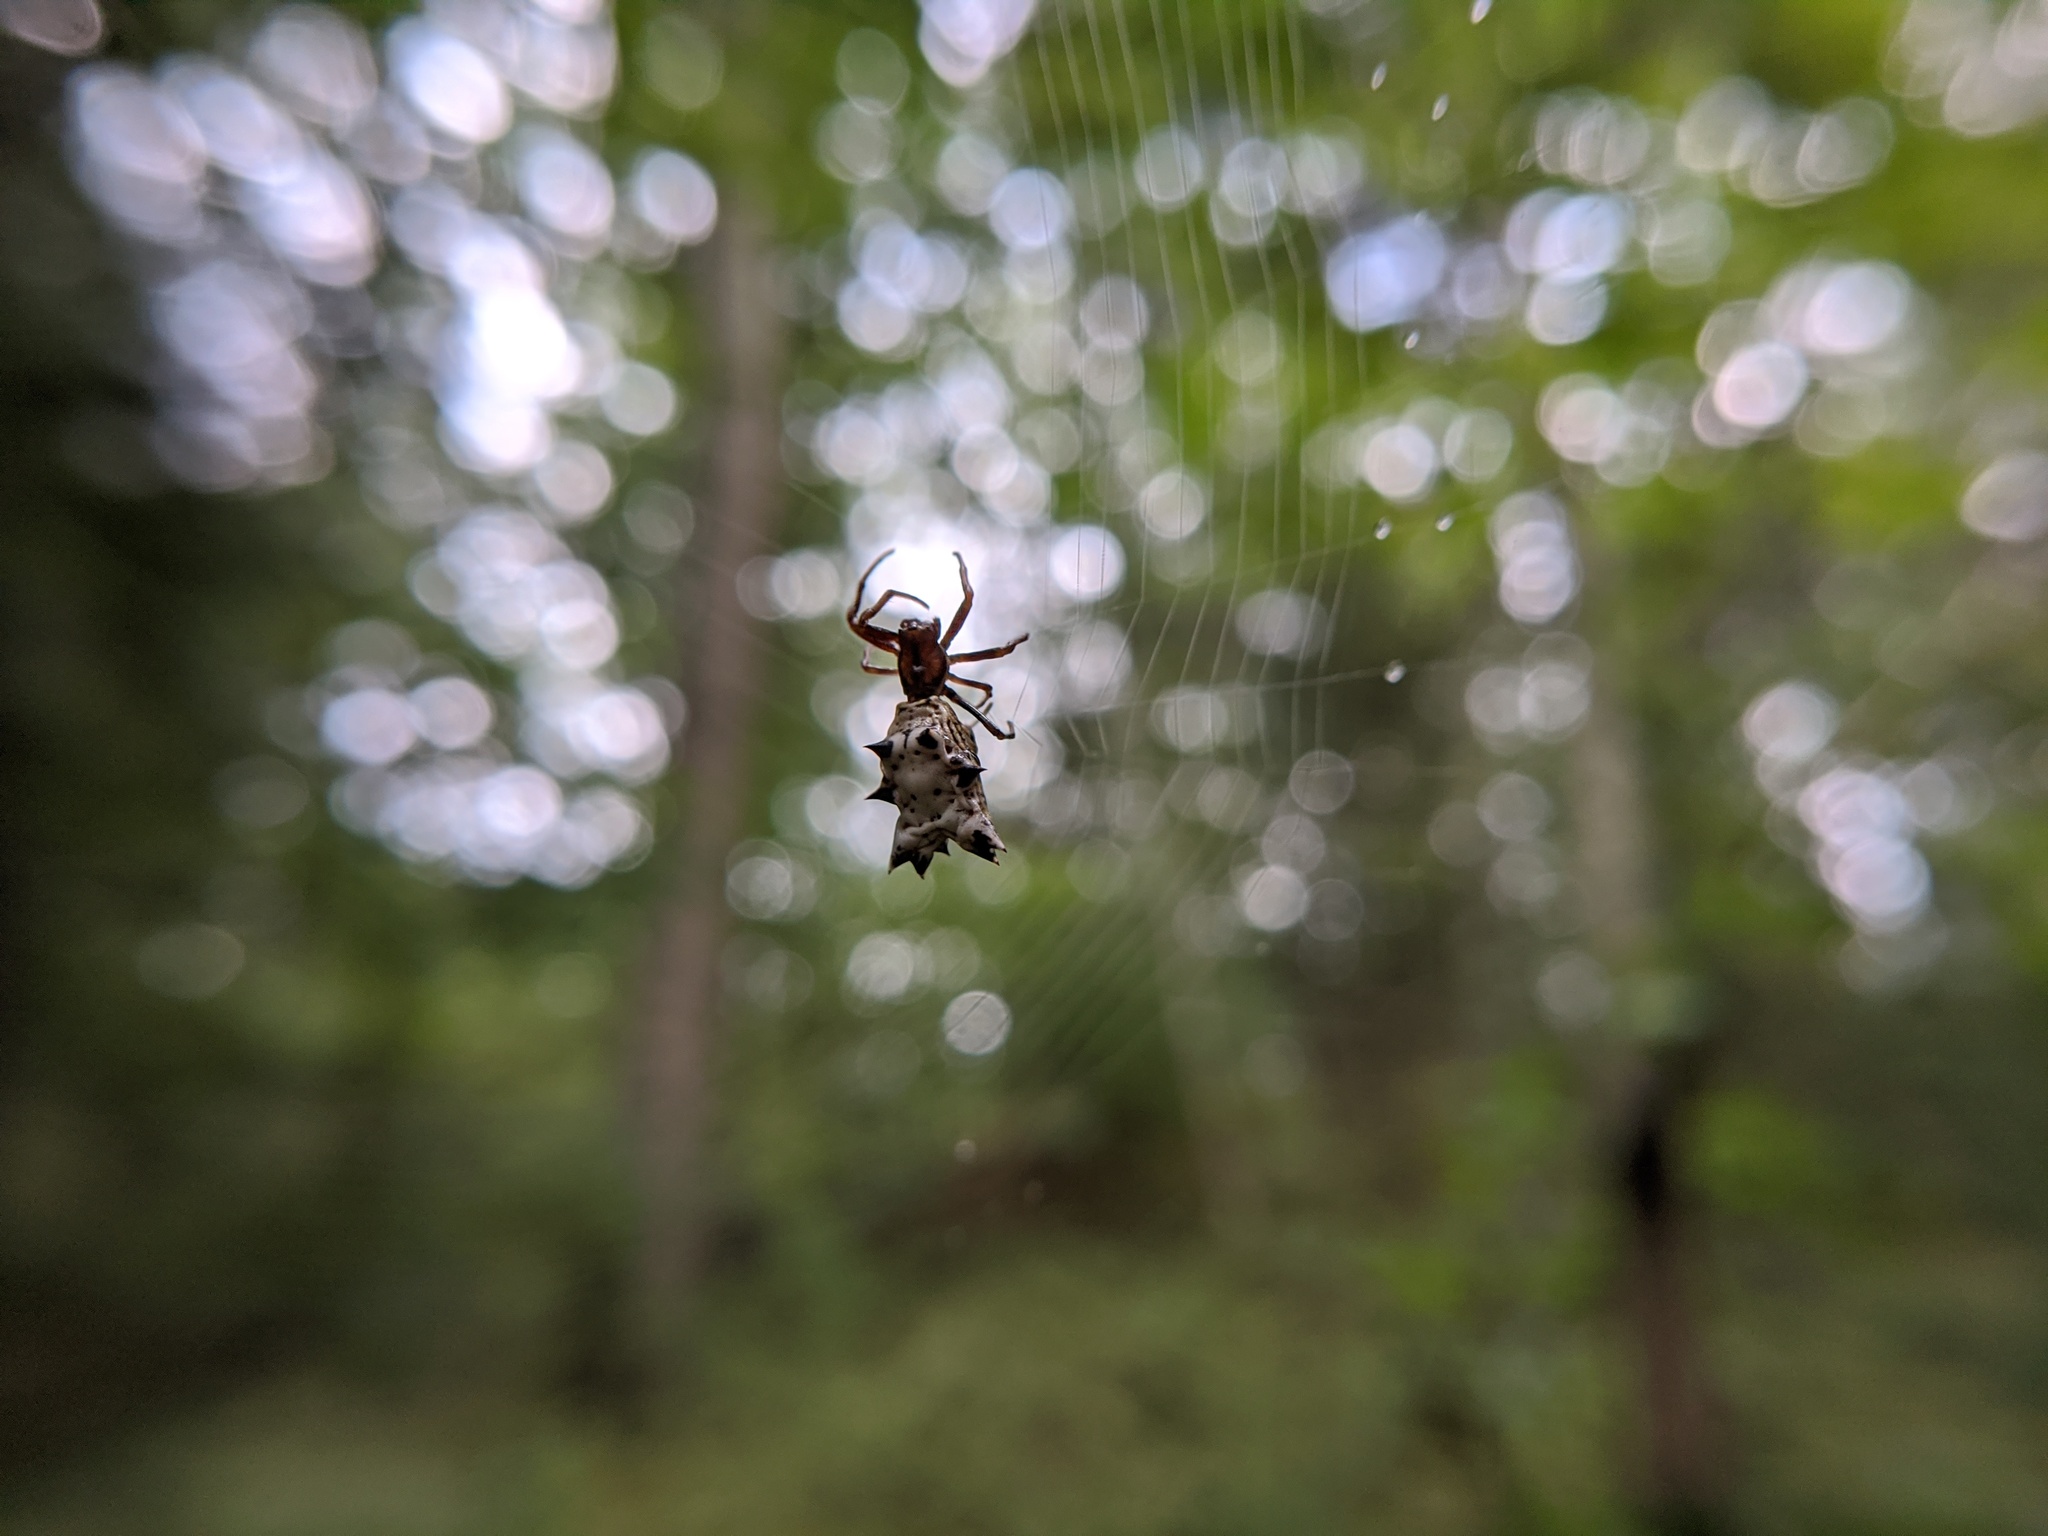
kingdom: Animalia
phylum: Arthropoda
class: Arachnida
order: Araneae
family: Araneidae
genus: Micrathena
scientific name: Micrathena gracilis
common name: Orb weavers
